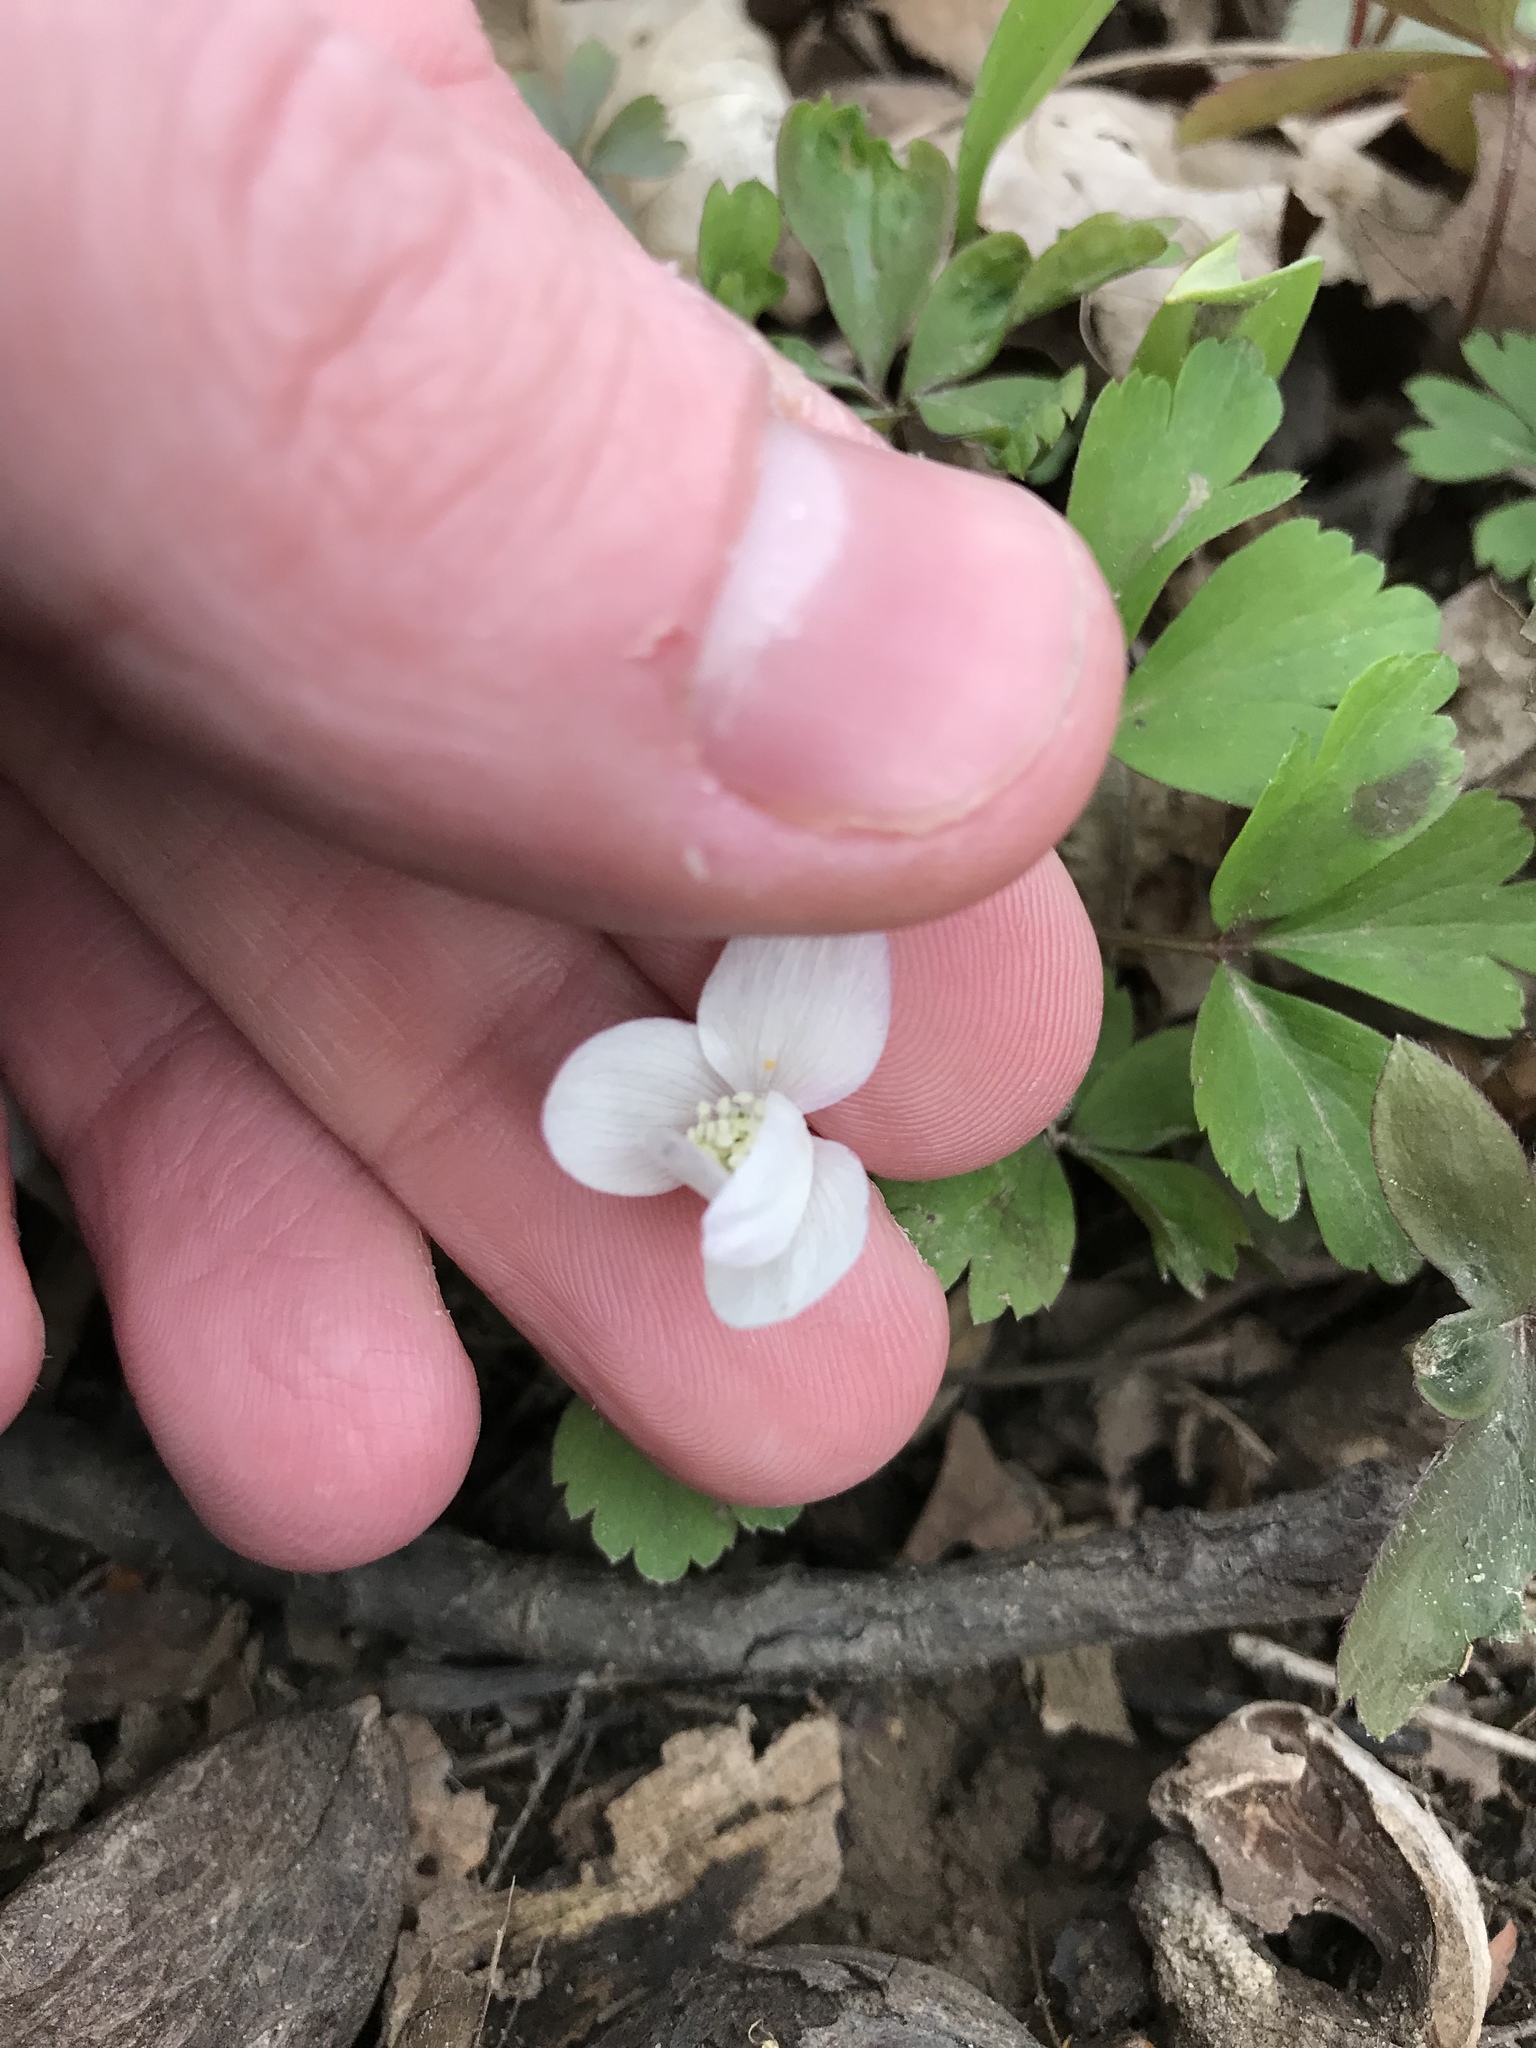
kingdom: Plantae
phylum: Tracheophyta
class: Magnoliopsida
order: Ranunculales
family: Ranunculaceae
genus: Anemone
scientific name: Anemone quinquefolia
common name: Wood anemone
